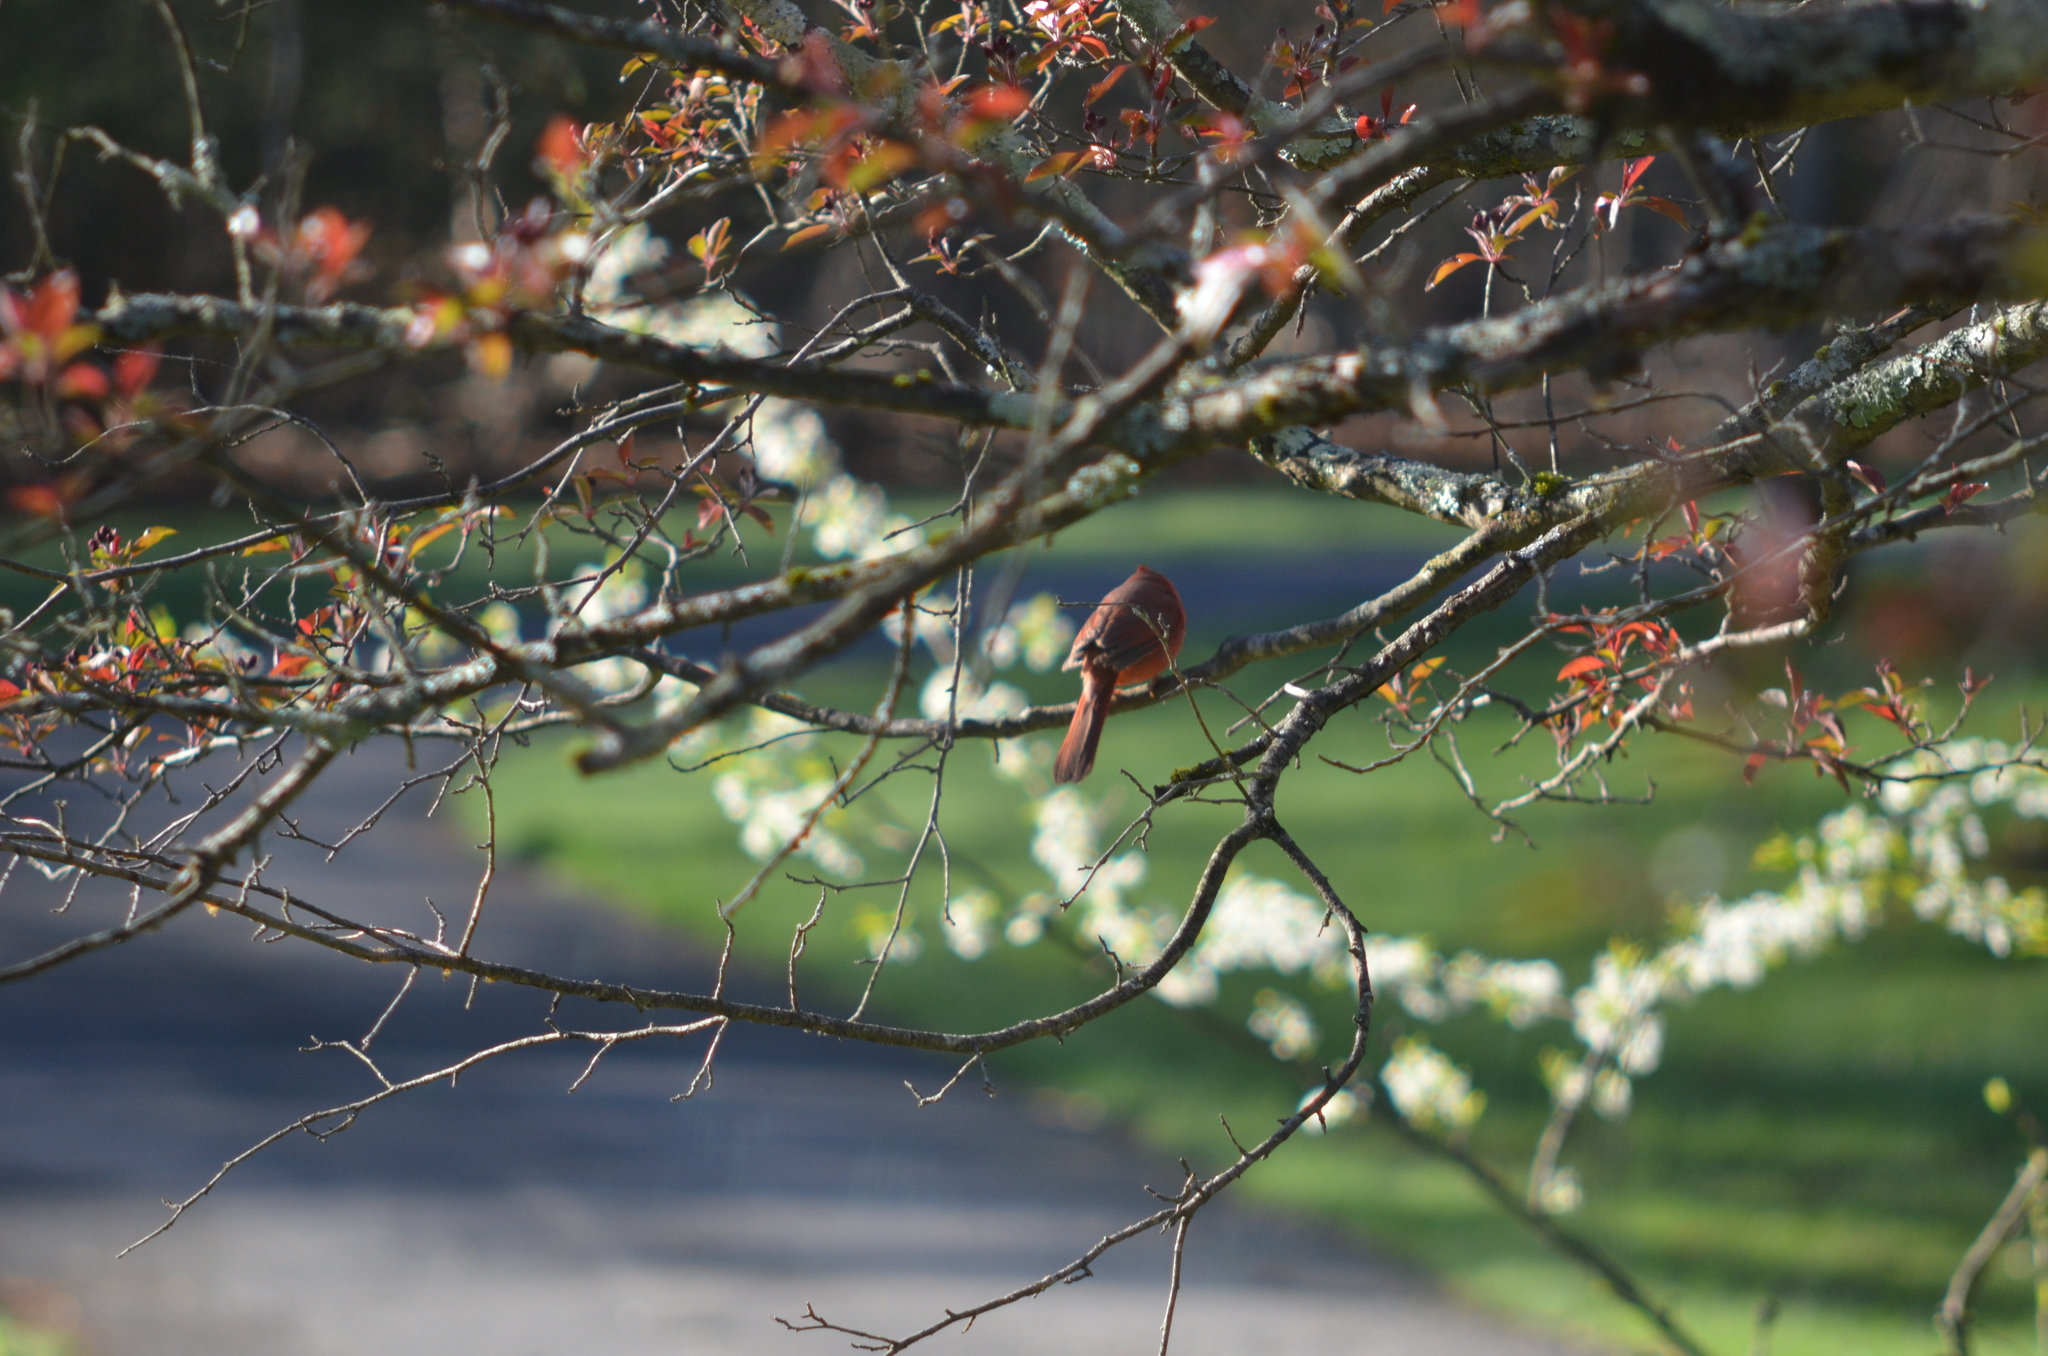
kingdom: Animalia
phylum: Chordata
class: Aves
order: Passeriformes
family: Cardinalidae
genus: Cardinalis
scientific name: Cardinalis cardinalis
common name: Northern cardinal
